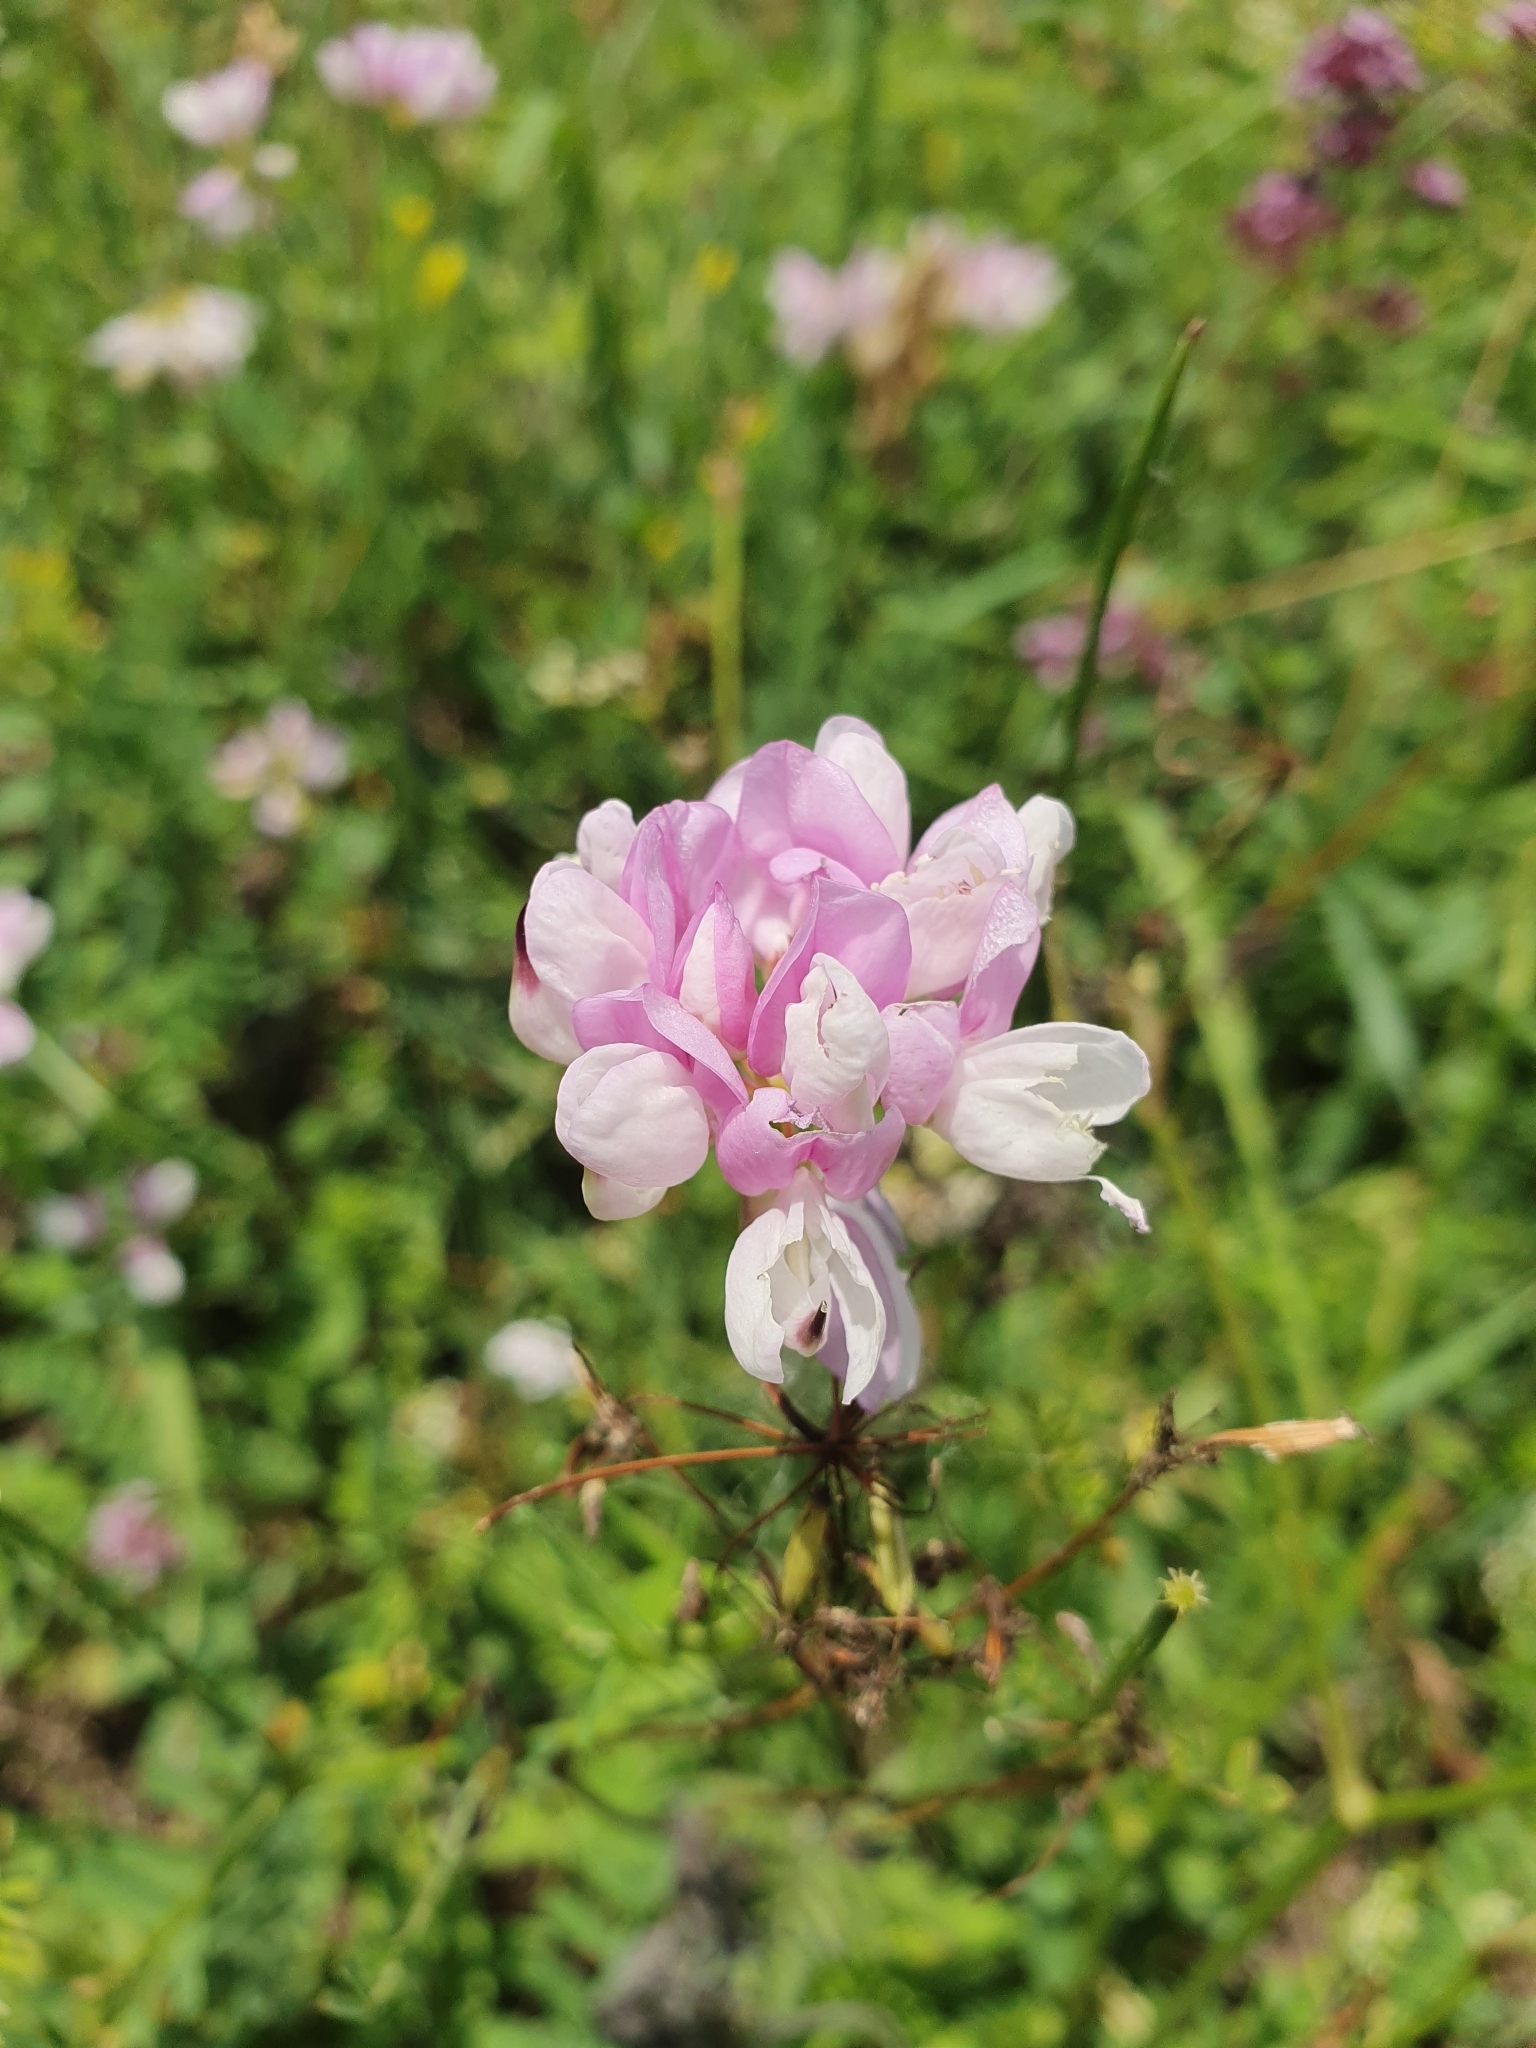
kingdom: Plantae
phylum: Tracheophyta
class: Magnoliopsida
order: Fabales
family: Fabaceae
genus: Coronilla
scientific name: Coronilla varia
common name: Crownvetch
